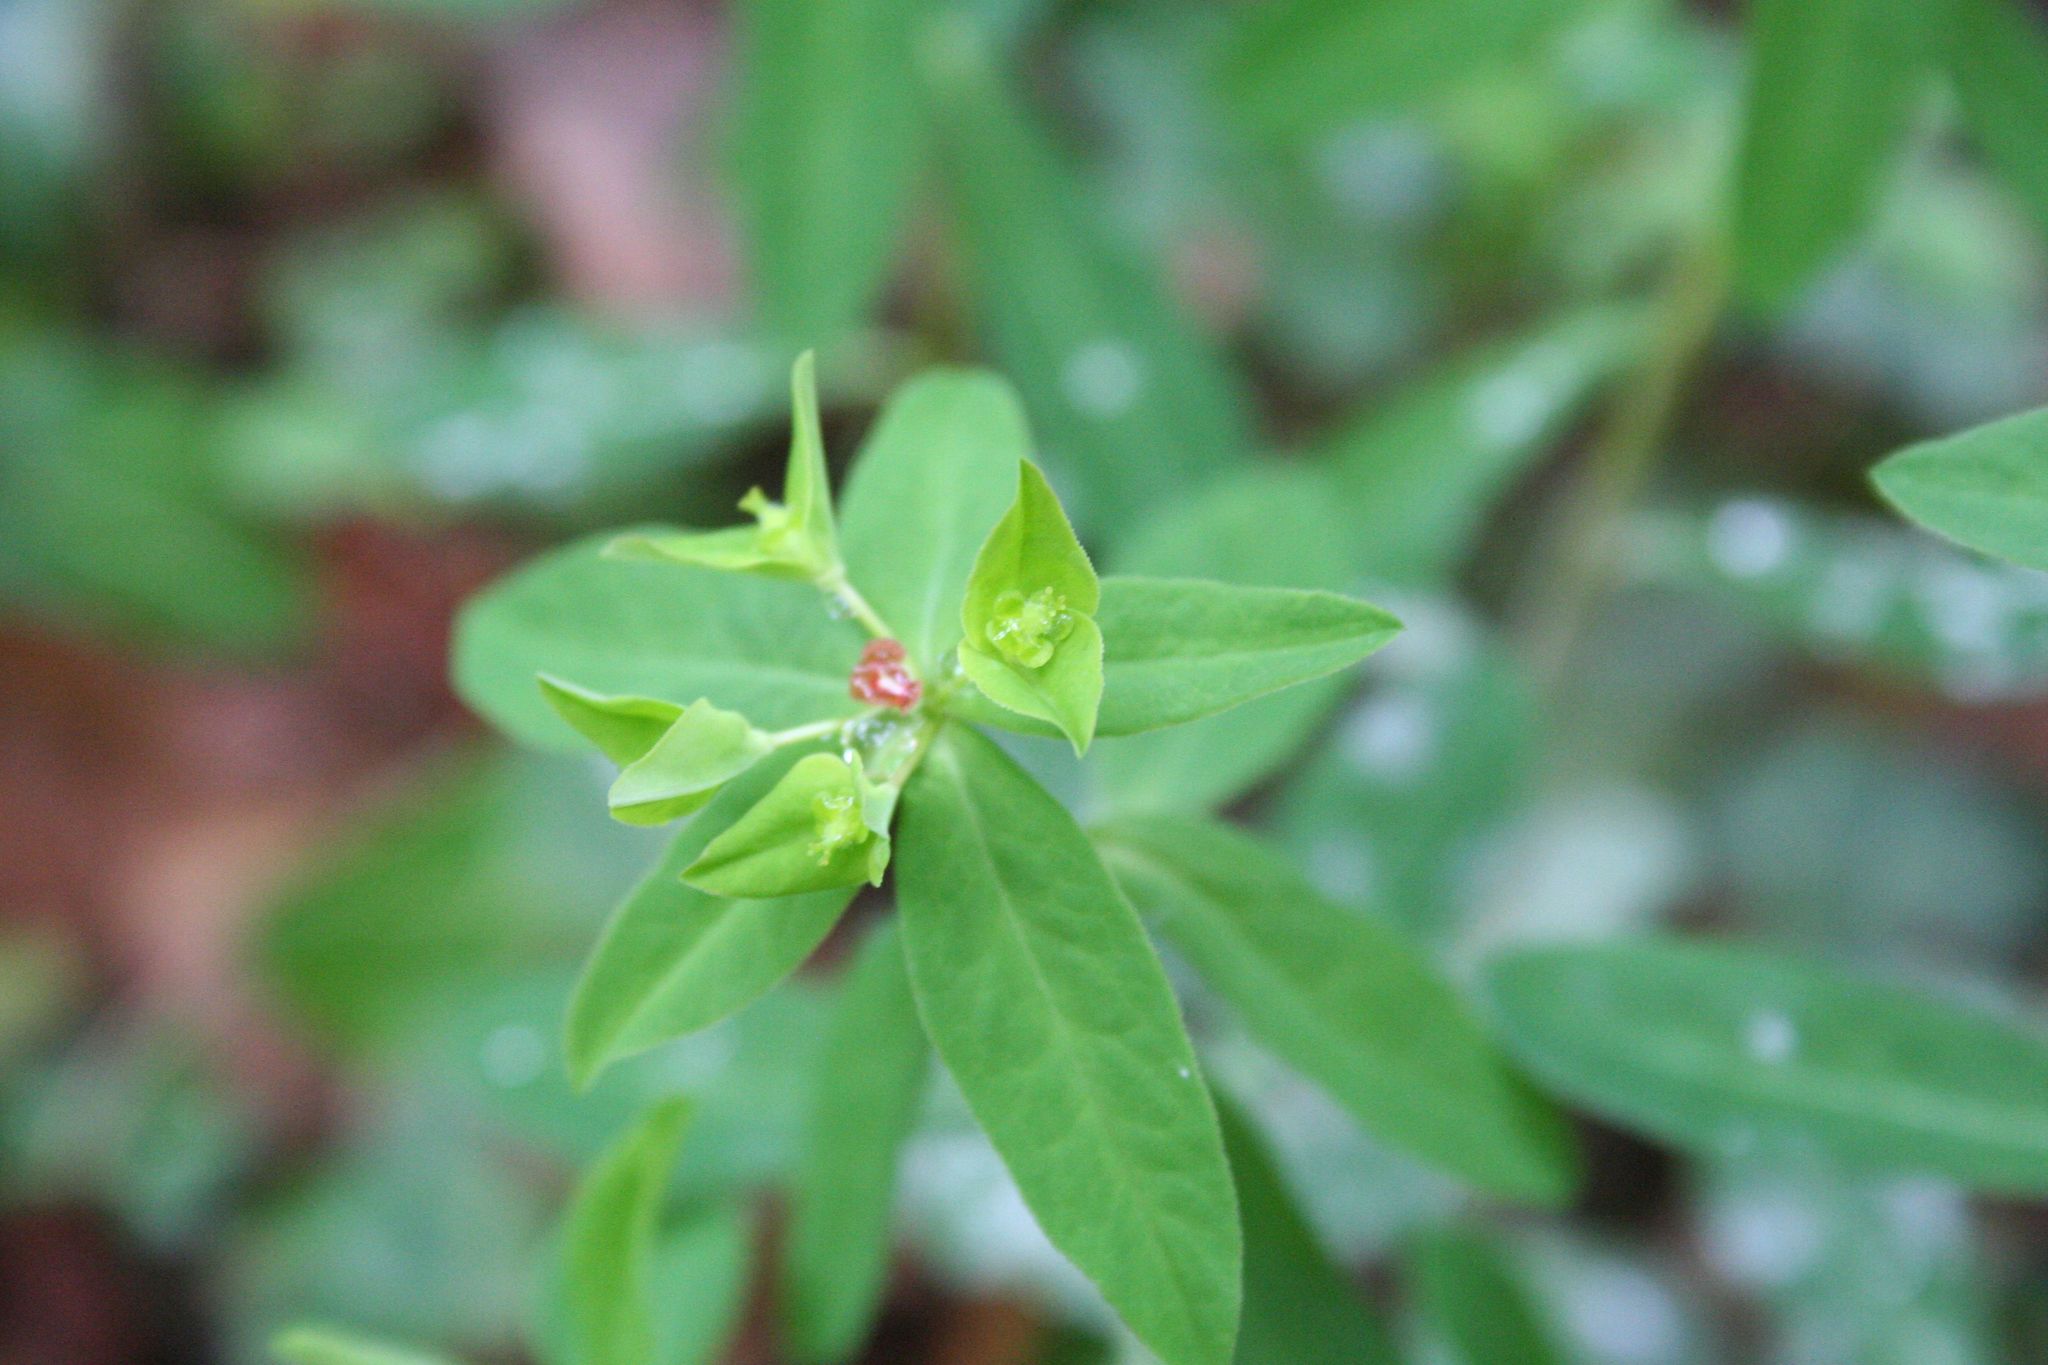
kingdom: Plantae
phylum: Tracheophyta
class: Magnoliopsida
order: Malpighiales
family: Euphorbiaceae
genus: Euphorbia
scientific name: Euphorbia dulcis
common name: Sweet spurge
